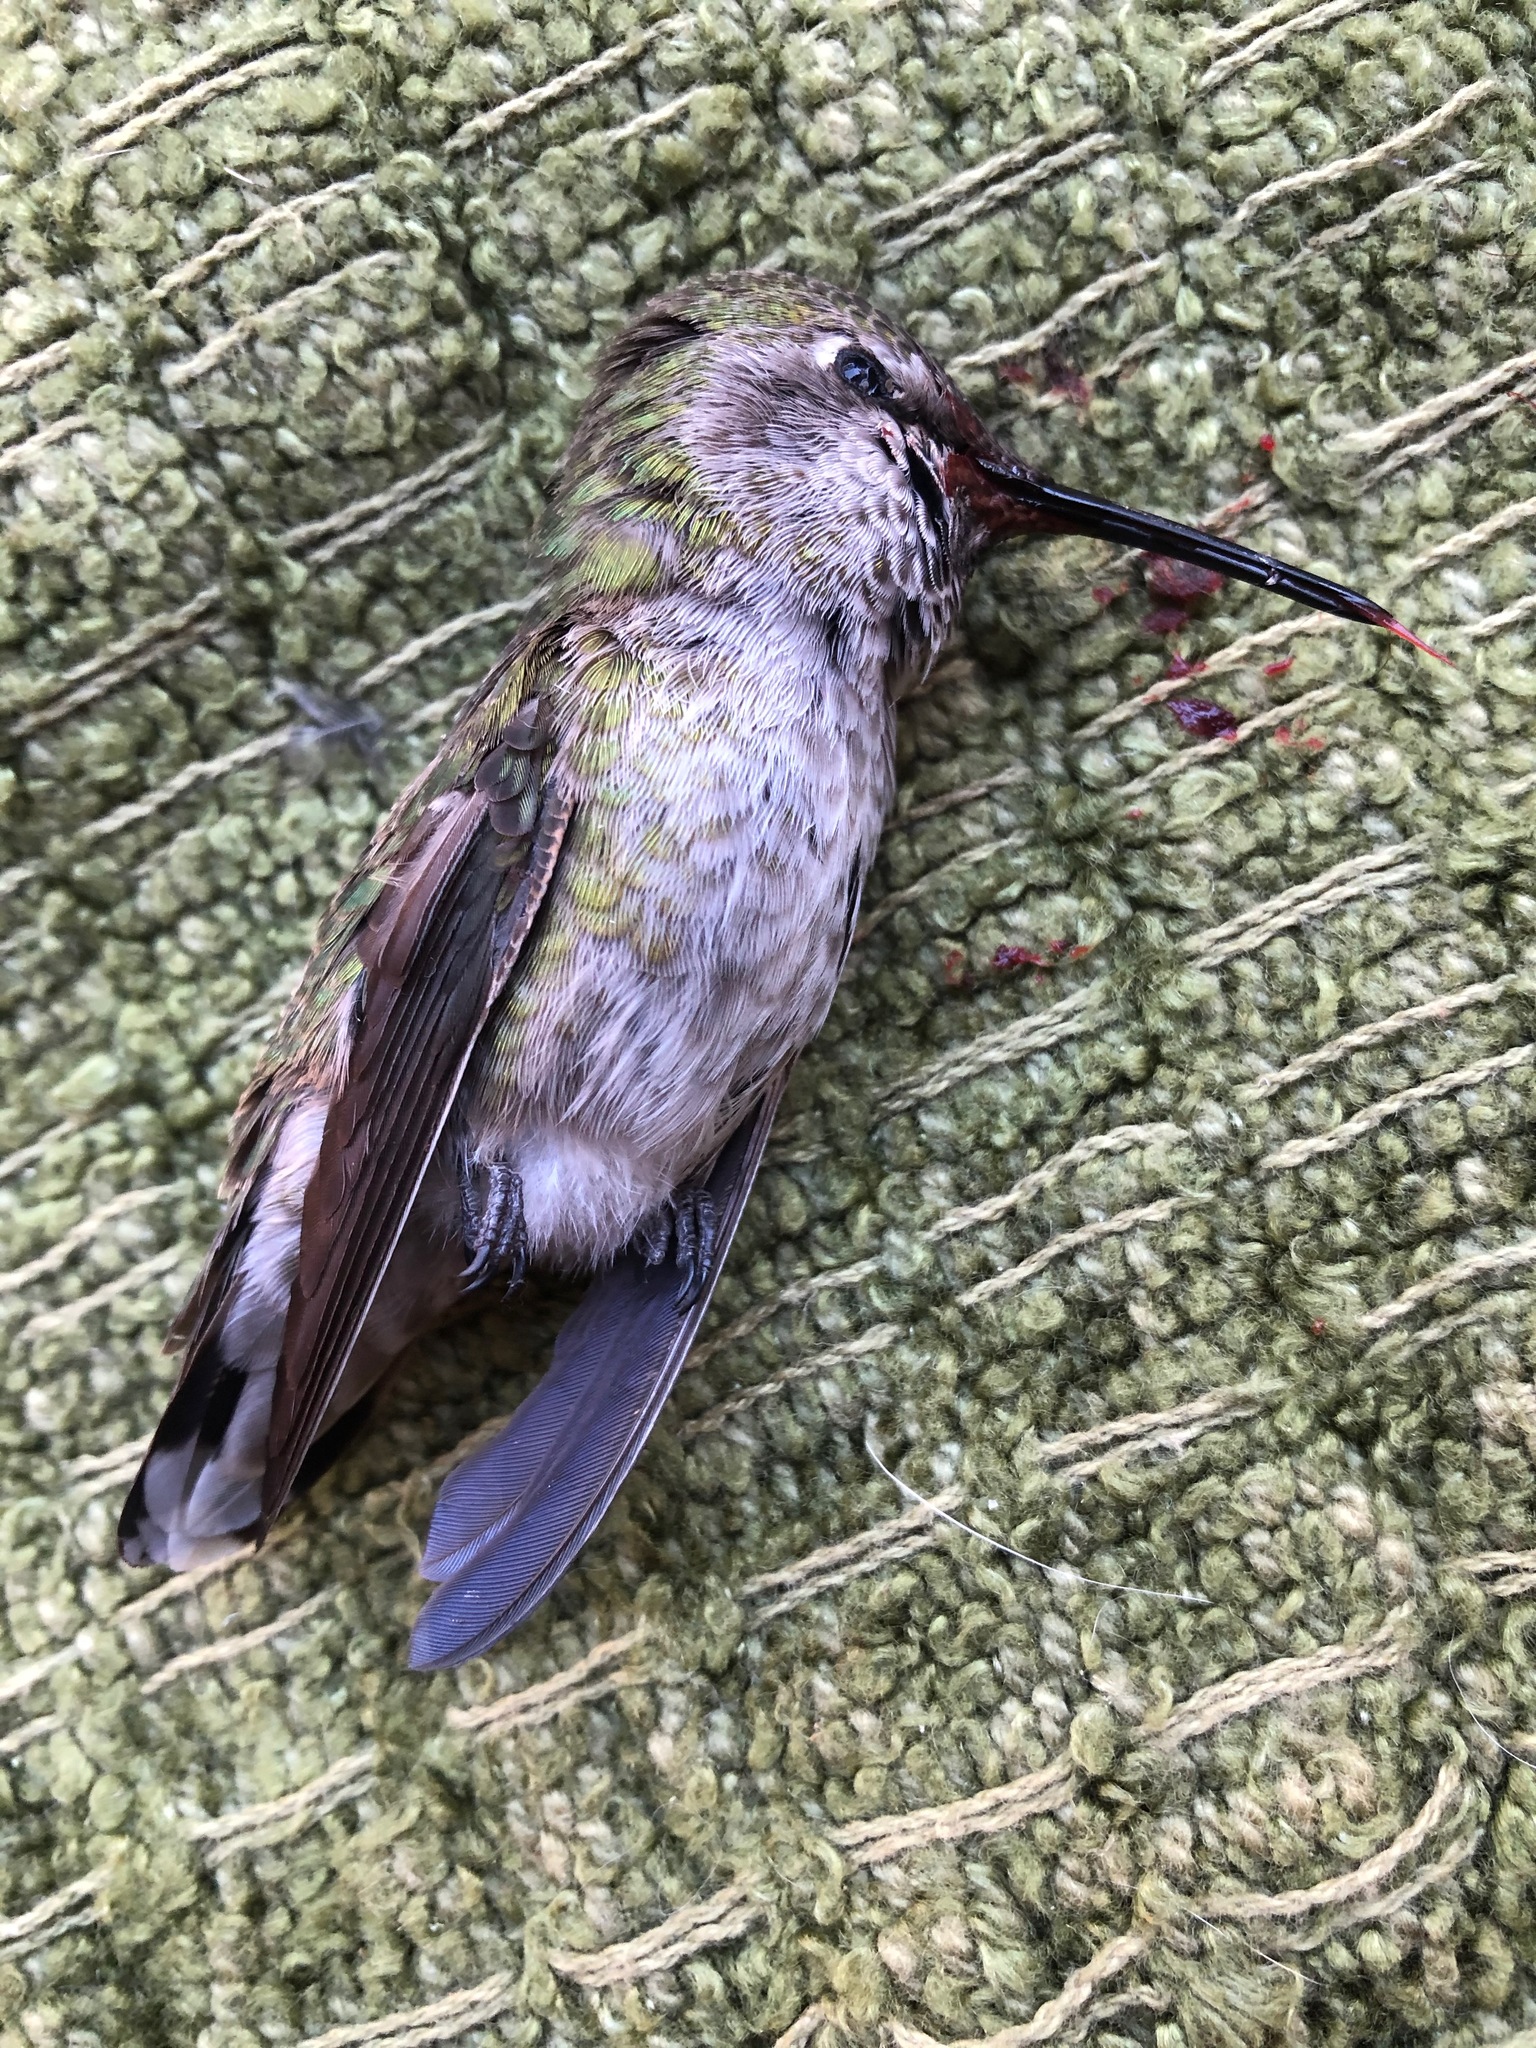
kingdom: Animalia
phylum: Chordata
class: Aves
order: Apodiformes
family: Trochilidae
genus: Calypte
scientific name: Calypte anna
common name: Anna's hummingbird
